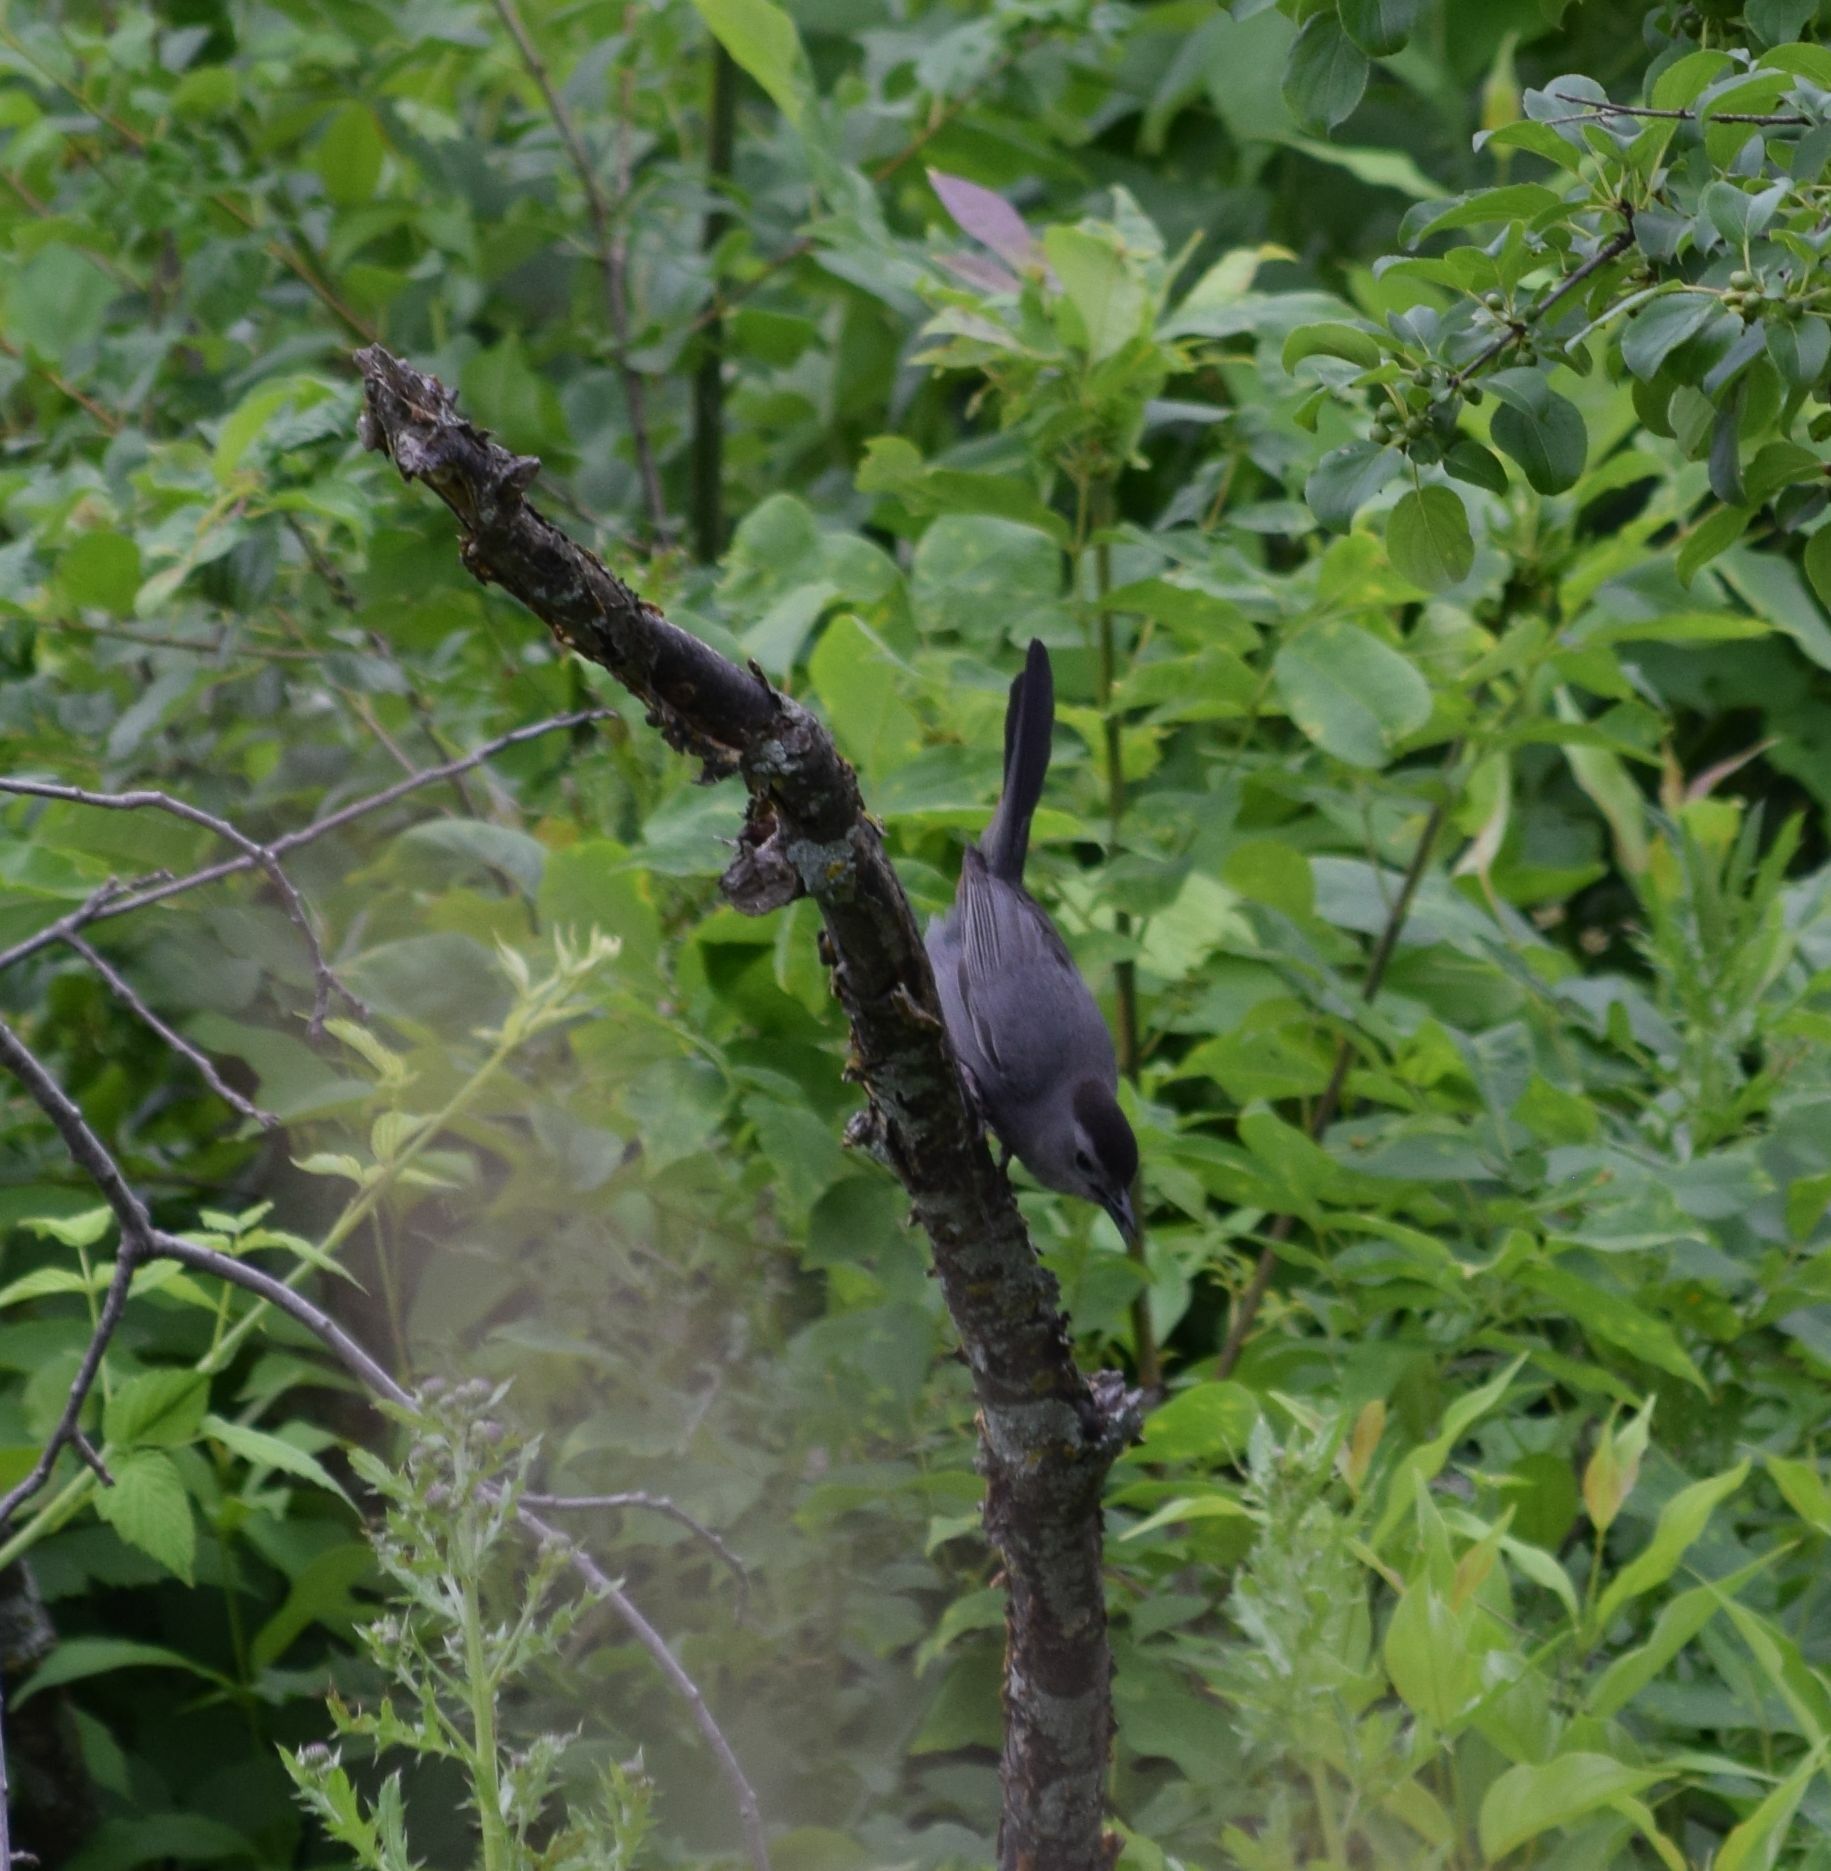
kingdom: Animalia
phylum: Chordata
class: Aves
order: Passeriformes
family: Mimidae
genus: Dumetella
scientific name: Dumetella carolinensis
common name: Gray catbird
